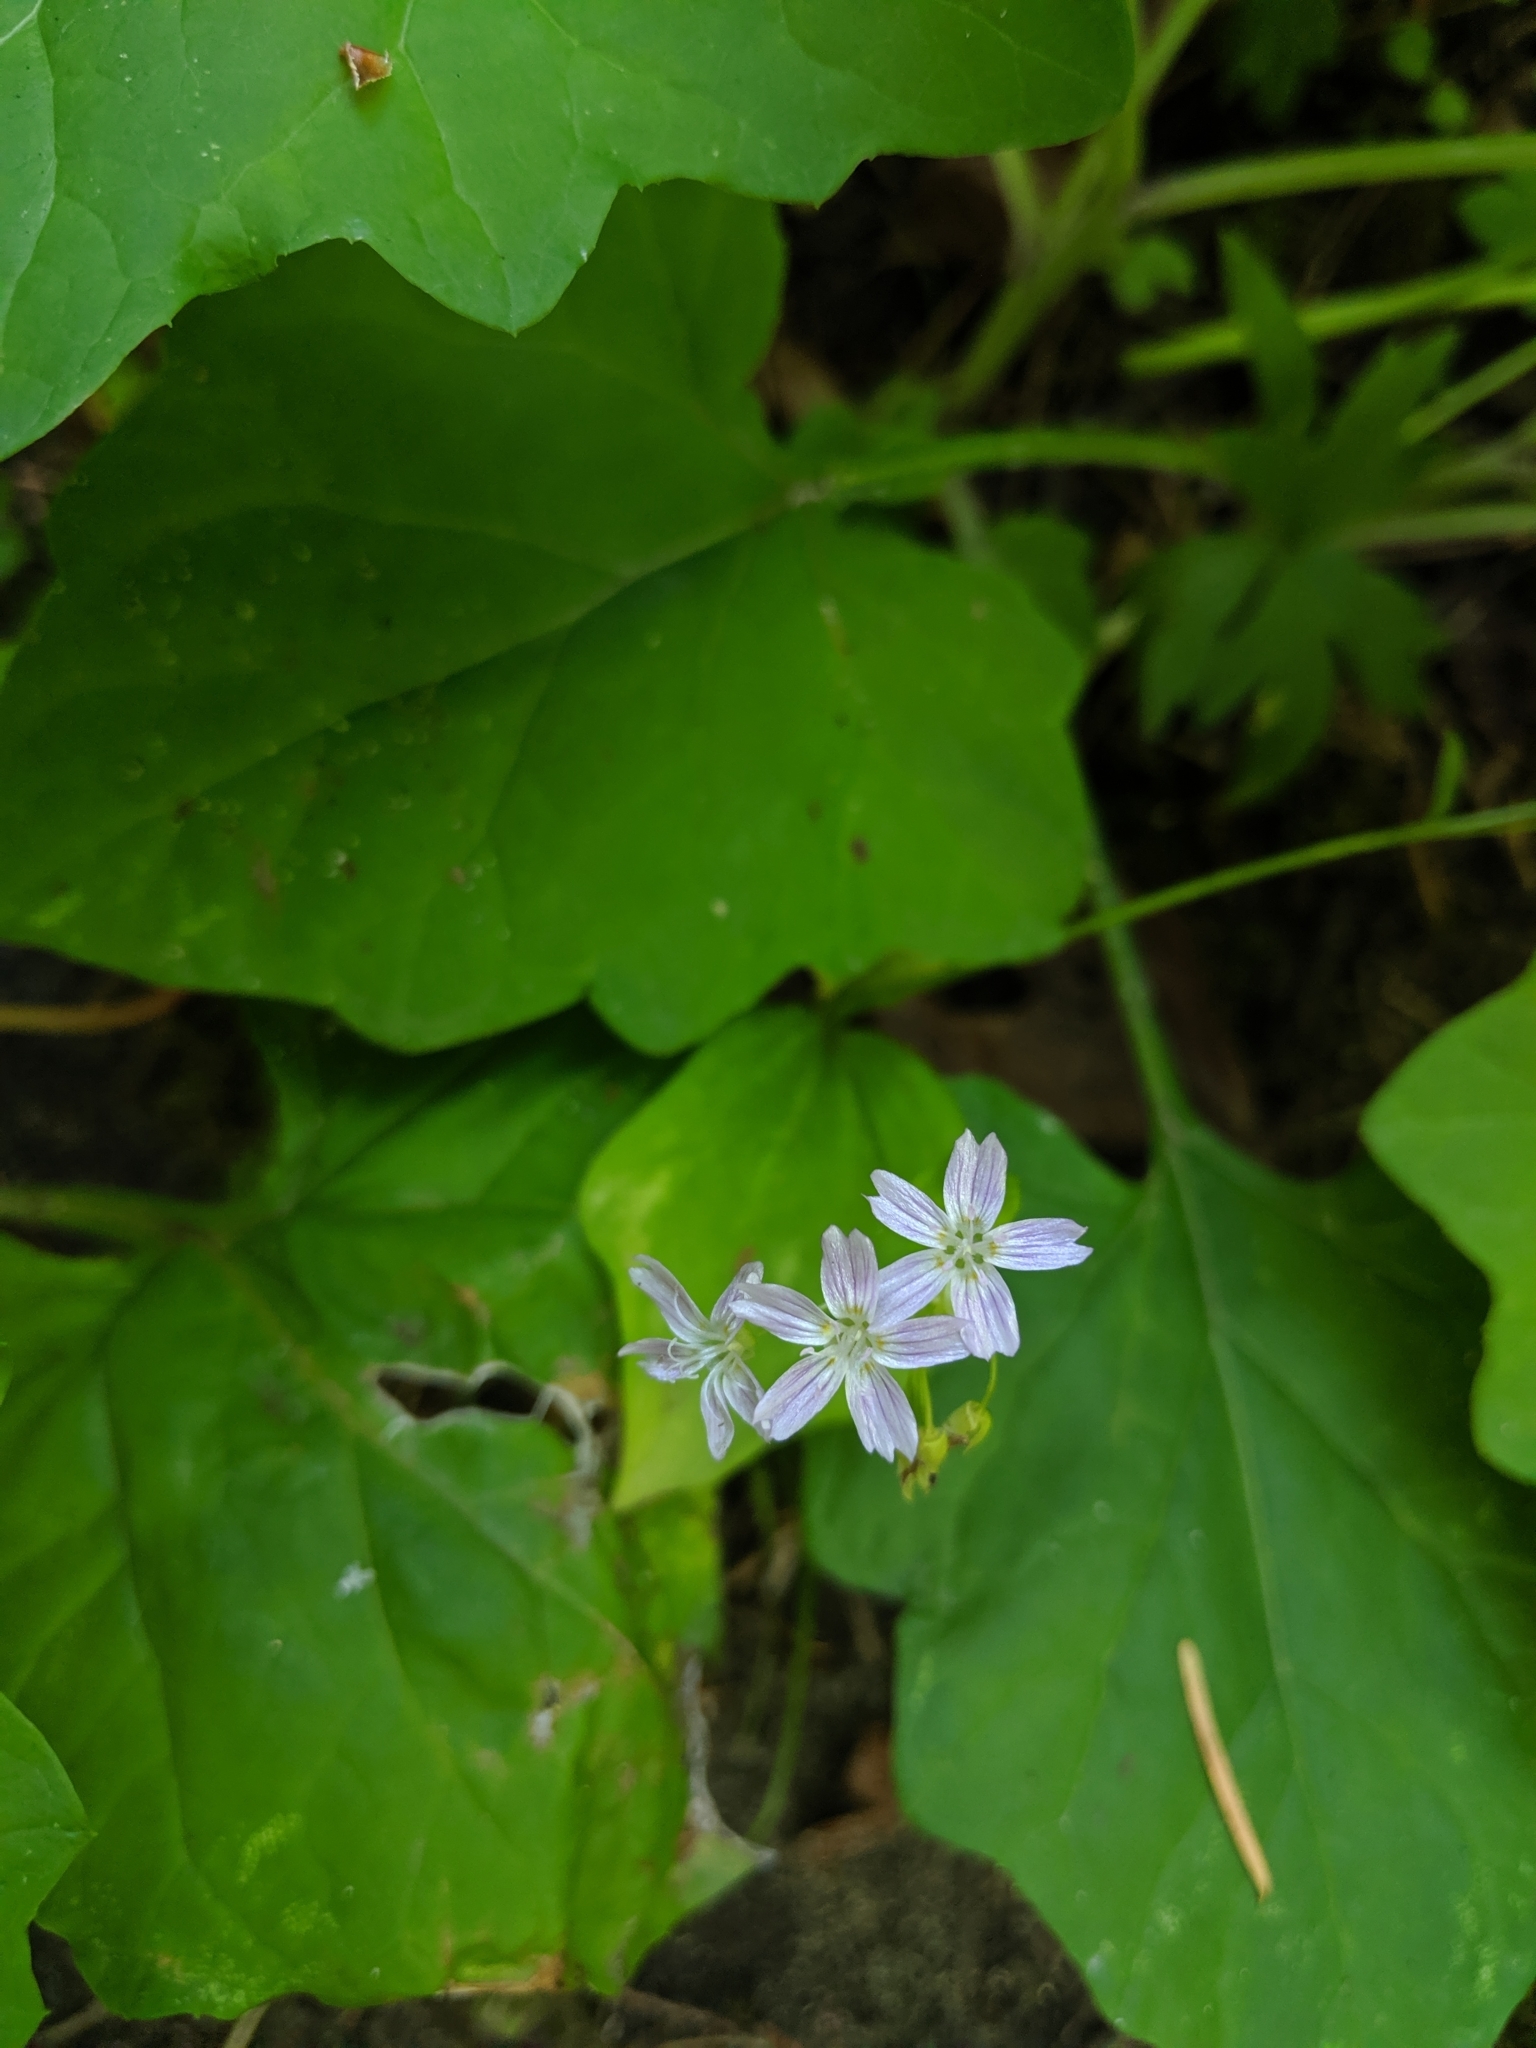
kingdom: Plantae
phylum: Tracheophyta
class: Magnoliopsida
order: Caryophyllales
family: Montiaceae
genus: Claytonia
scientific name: Claytonia sibirica
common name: Pink purslane
